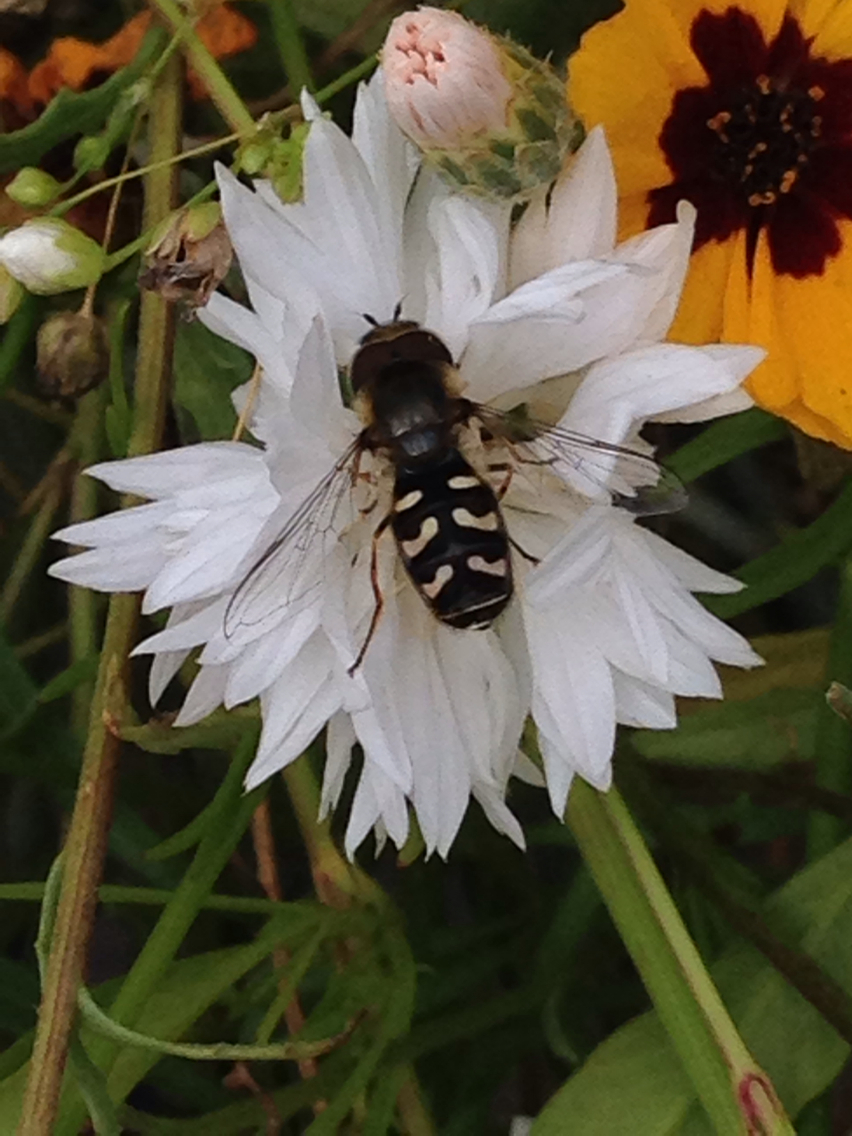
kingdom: Animalia
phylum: Arthropoda
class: Insecta
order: Diptera
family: Syrphidae
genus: Scaeva
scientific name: Scaeva pyrastri
